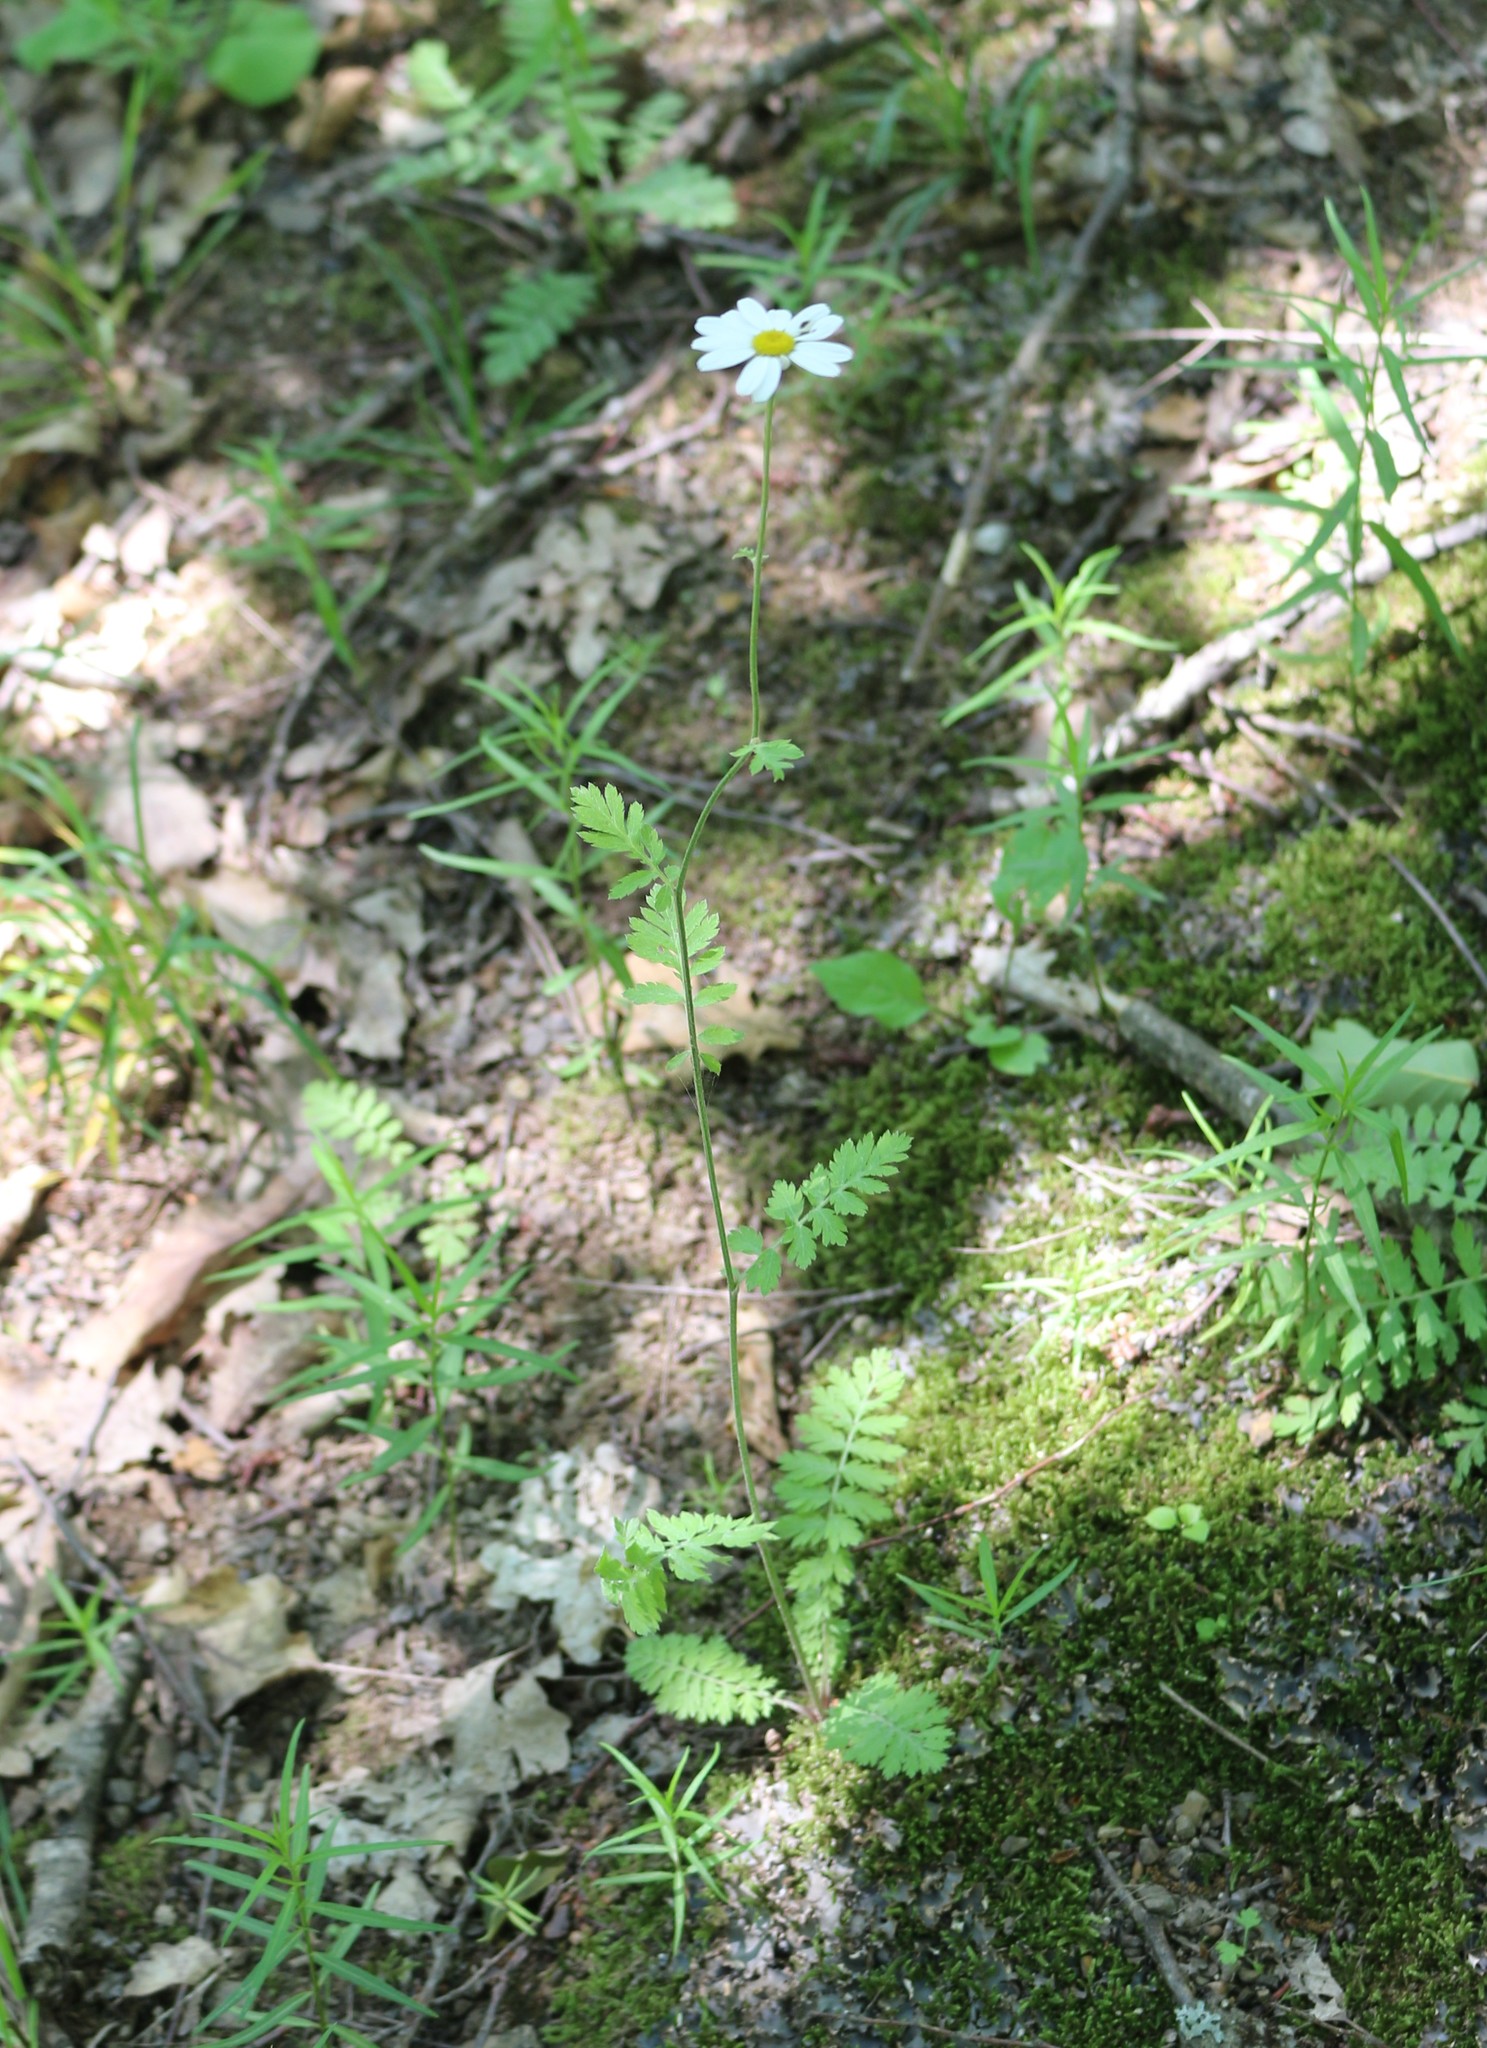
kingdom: Plantae
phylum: Tracheophyta
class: Magnoliopsida
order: Asterales
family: Asteraceae
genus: Tanacetum
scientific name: Tanacetum poteriifolium
